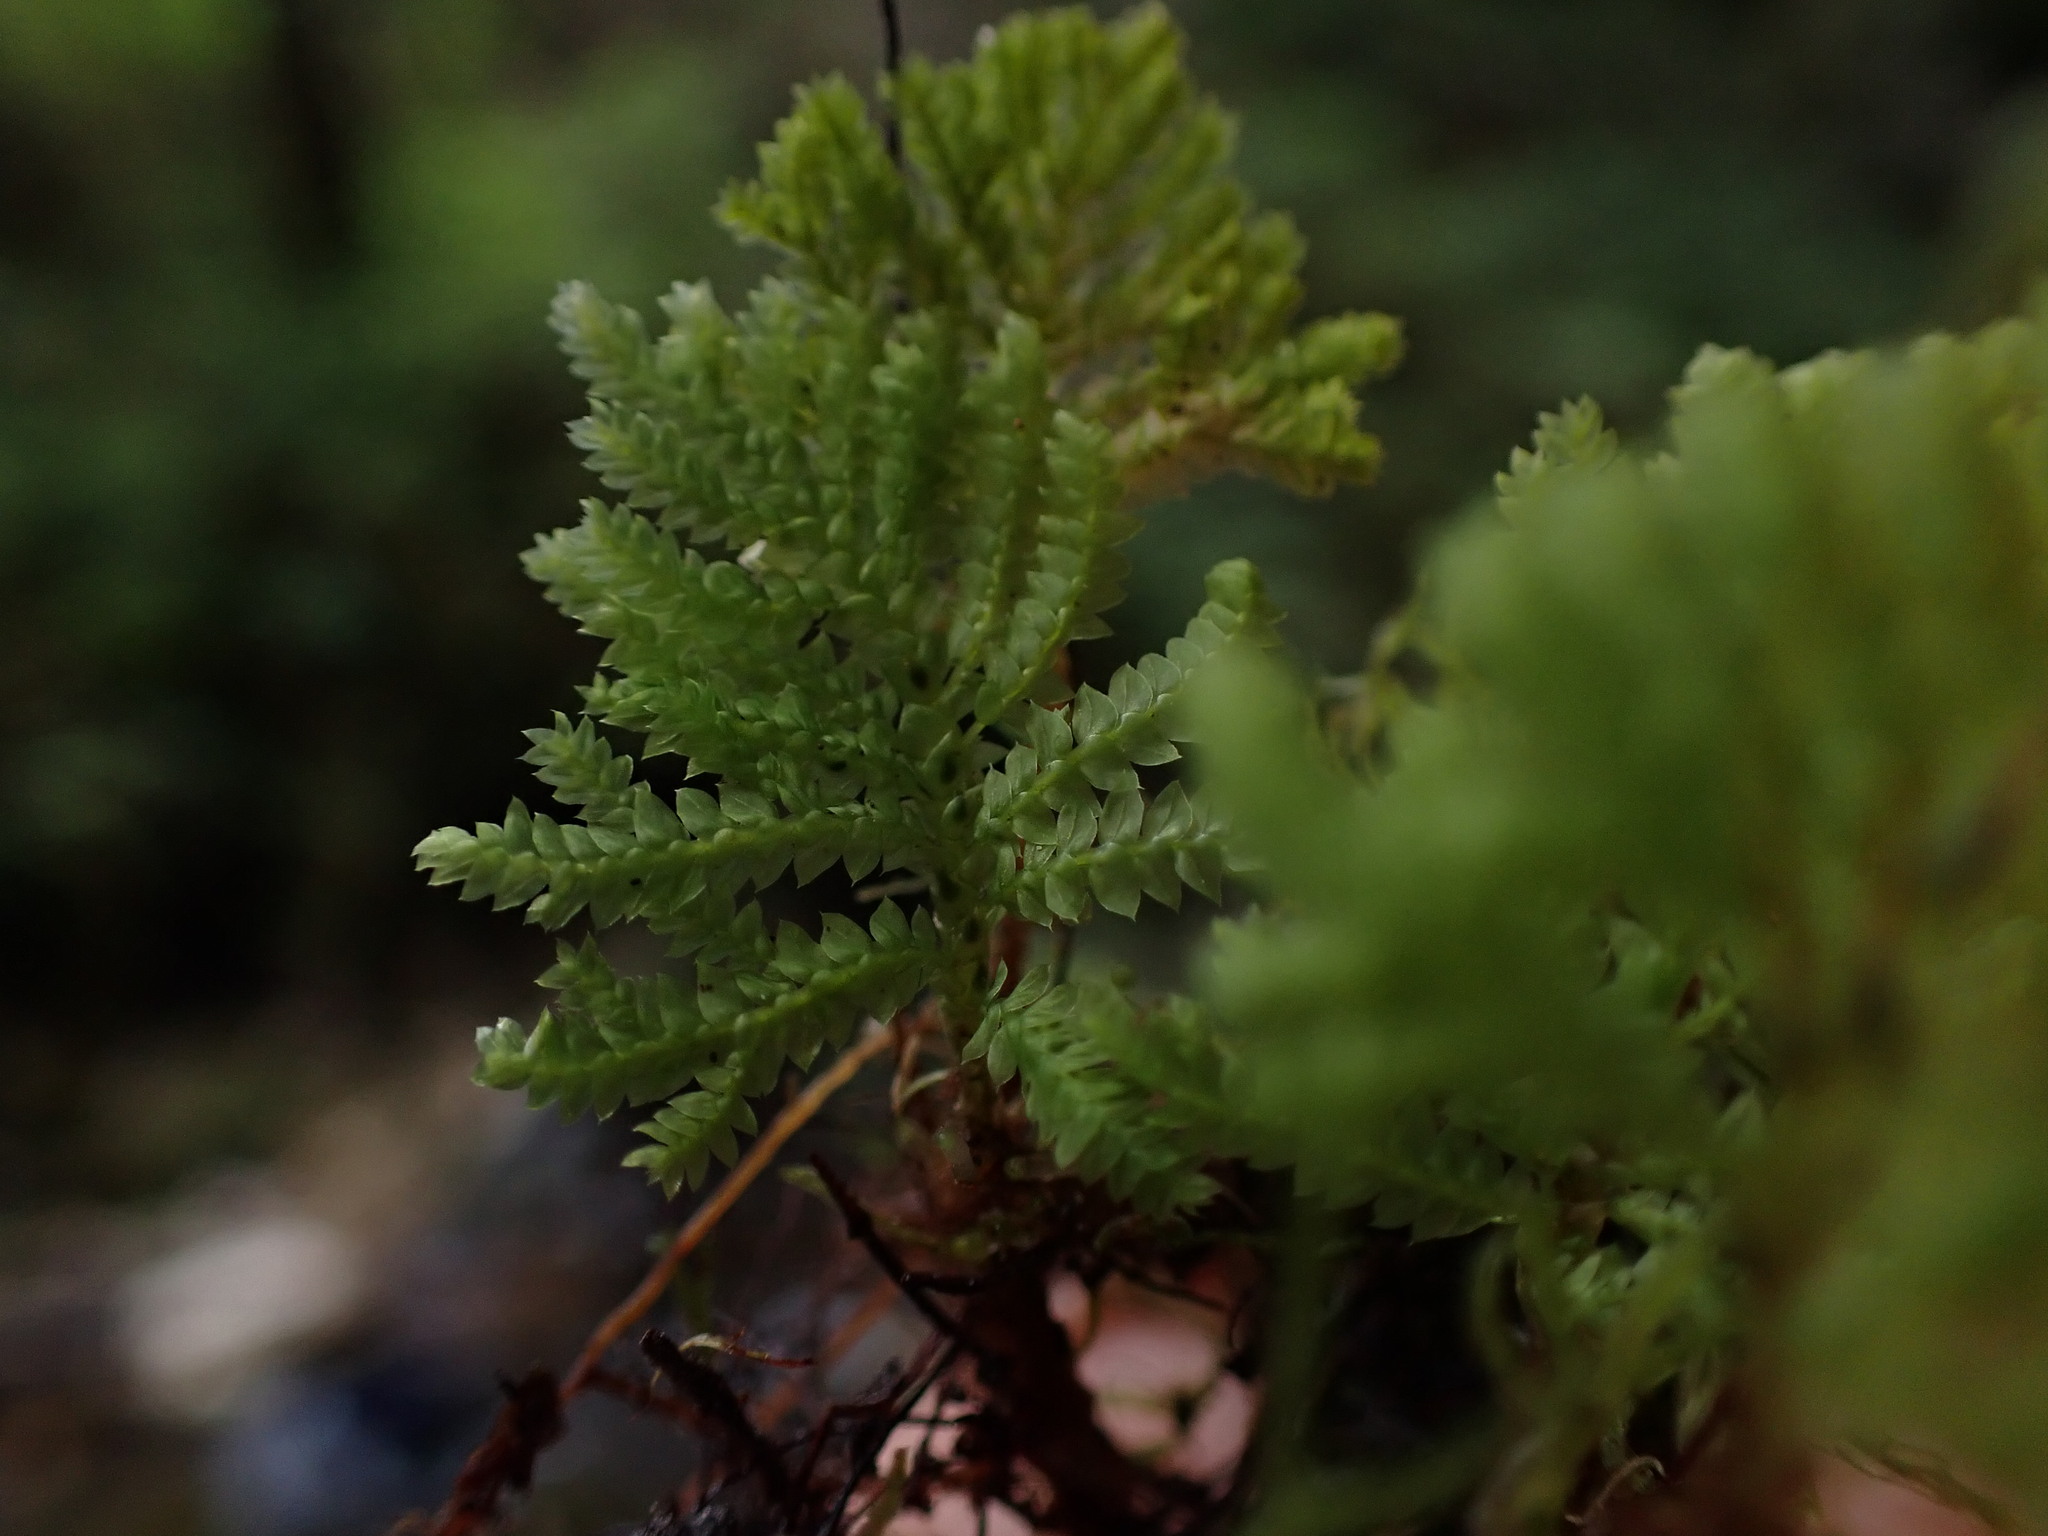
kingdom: Plantae
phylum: Bryophyta
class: Bryopsida
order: Hypopterygiales
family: Hypopterygiaceae
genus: Hypopterygium
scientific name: Hypopterygium flavolimbatum
